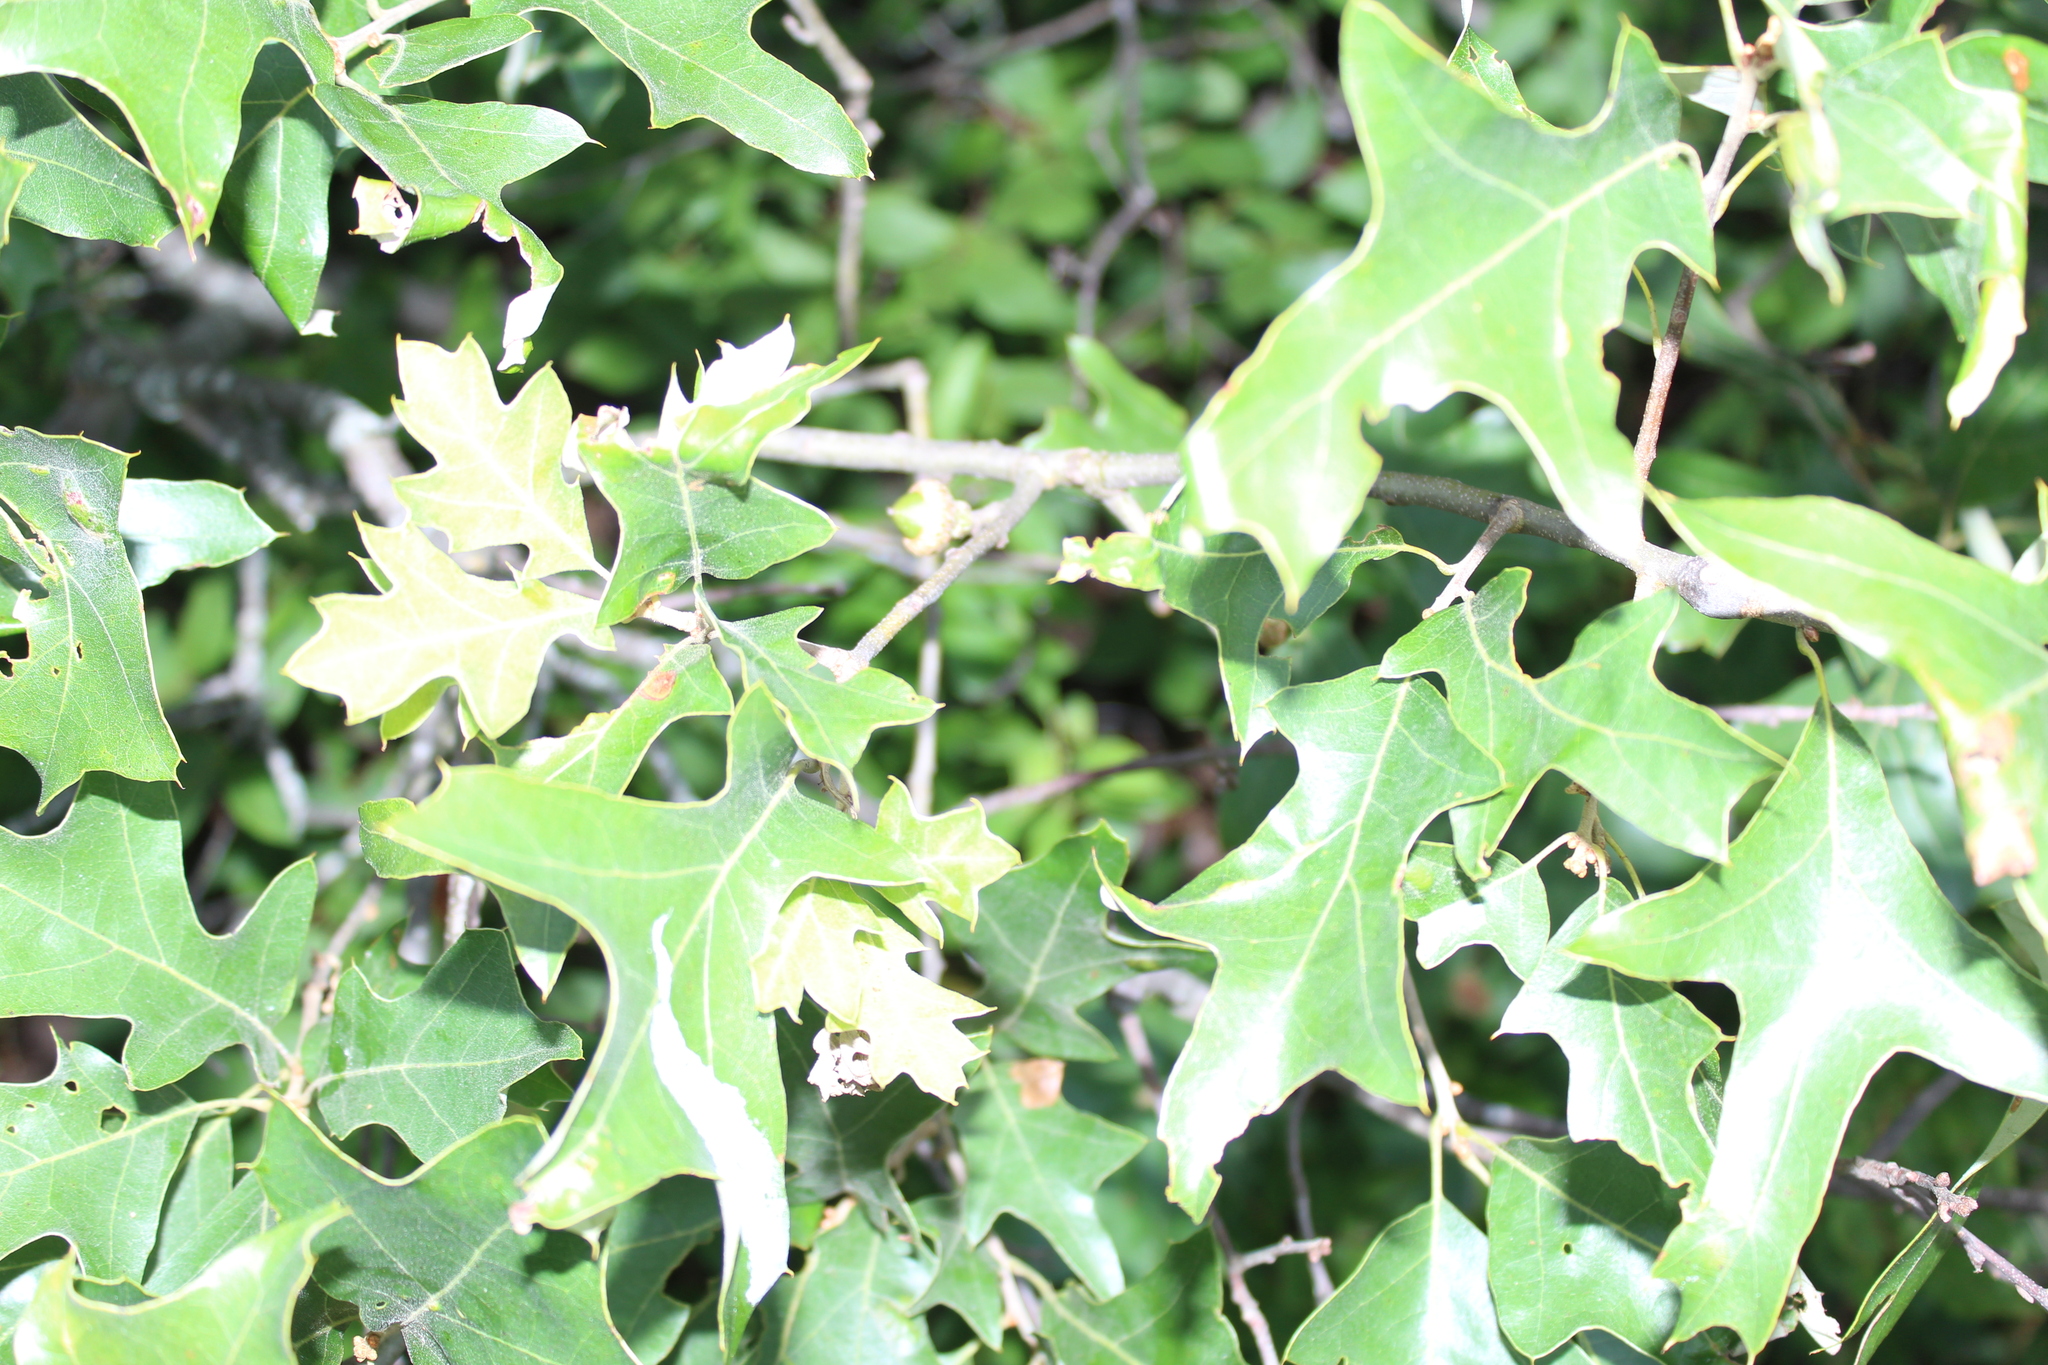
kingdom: Plantae
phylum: Tracheophyta
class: Magnoliopsida
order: Fagales
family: Fagaceae
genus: Quercus
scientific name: Quercus ilicifolia
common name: Bear oak
